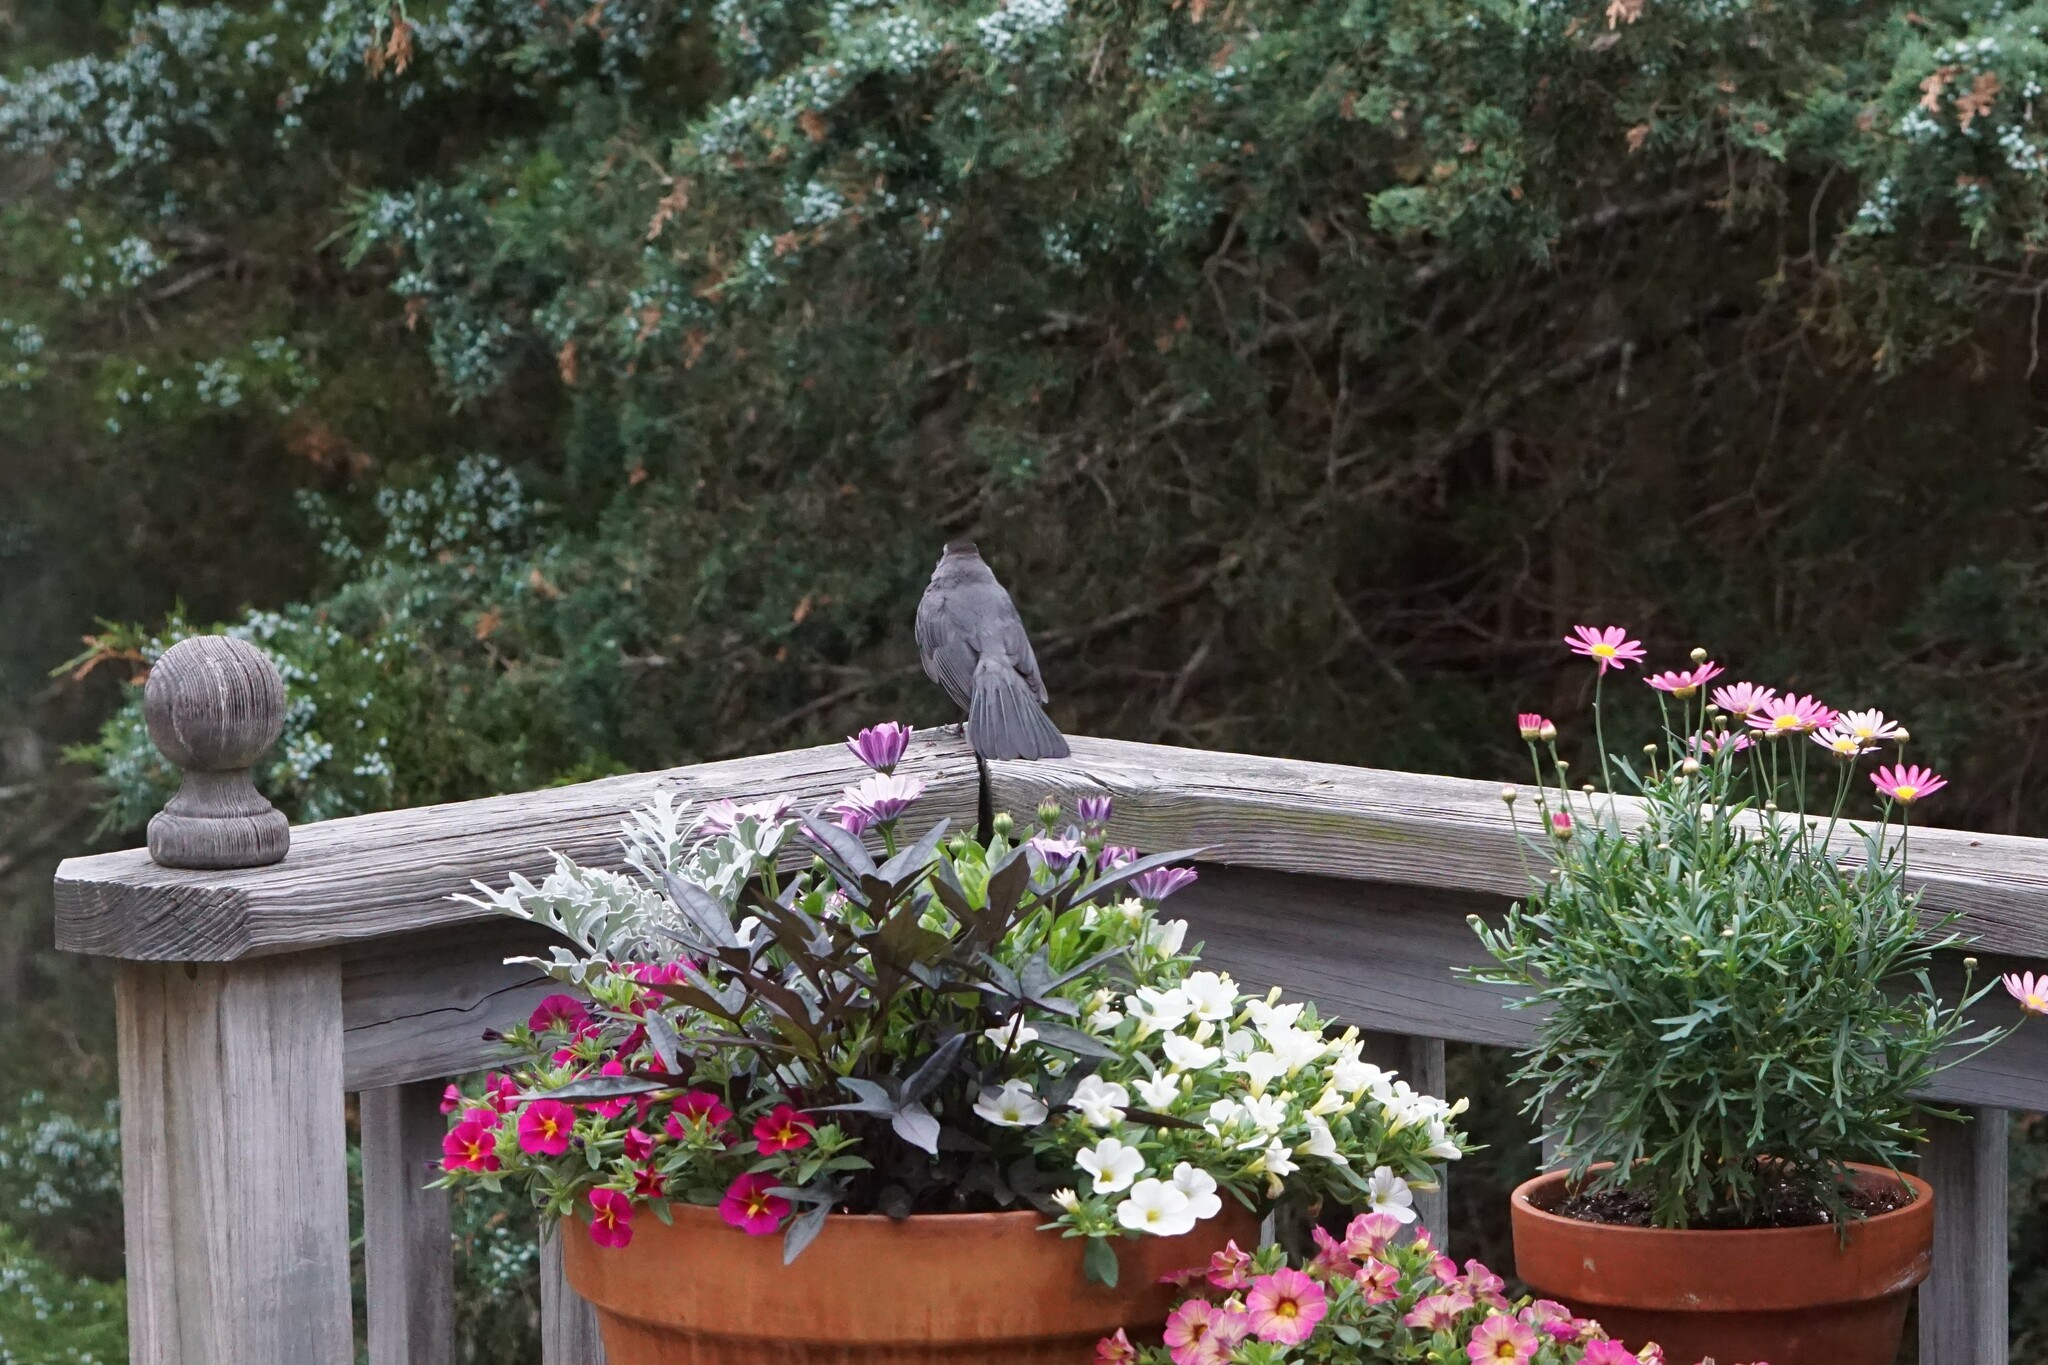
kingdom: Animalia
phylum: Chordata
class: Aves
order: Passeriformes
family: Mimidae
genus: Dumetella
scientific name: Dumetella carolinensis
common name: Gray catbird
